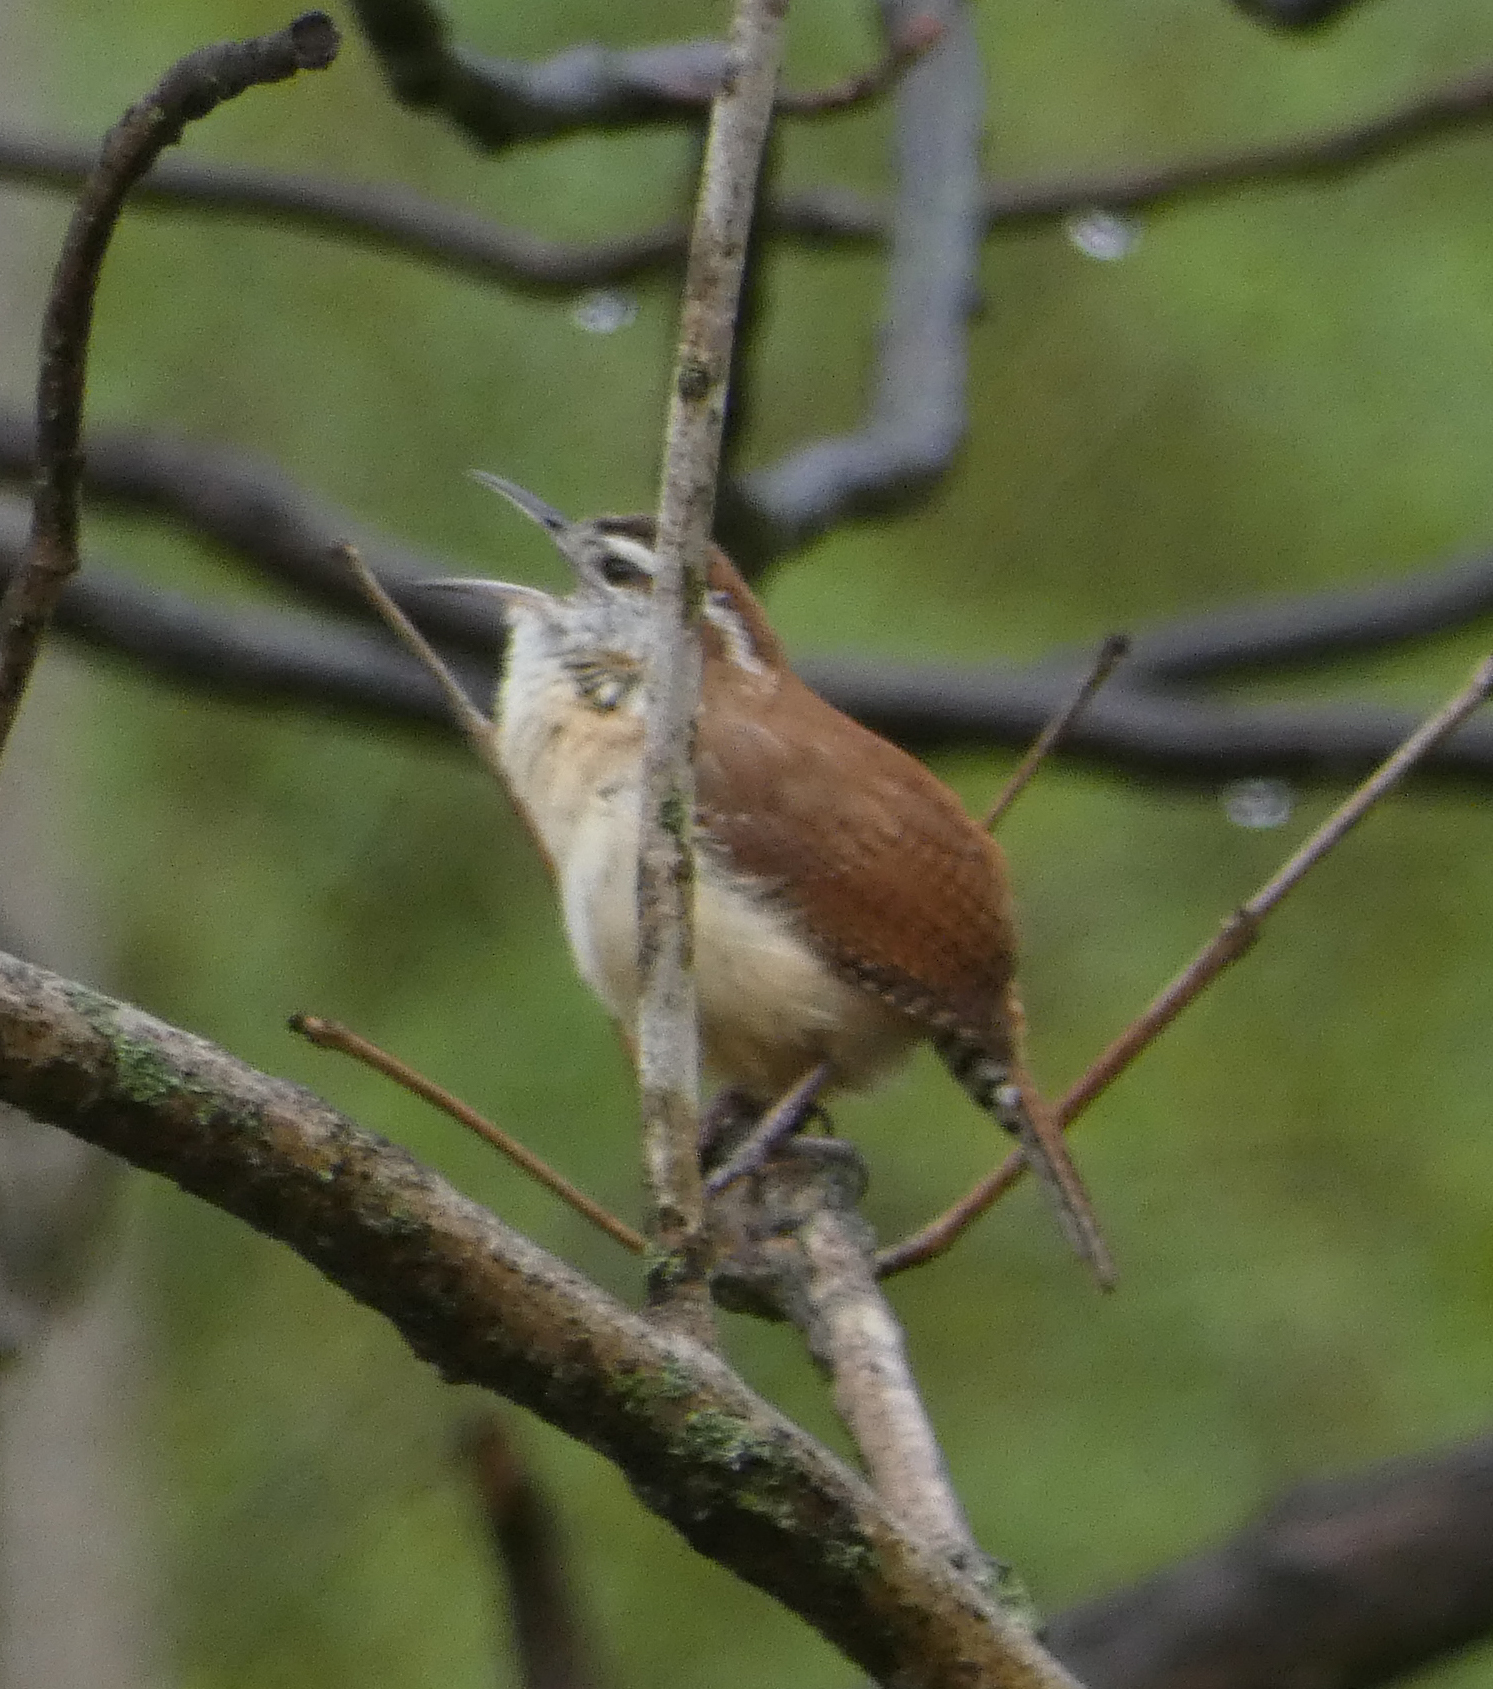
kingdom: Animalia
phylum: Chordata
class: Aves
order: Passeriformes
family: Troglodytidae
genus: Thryothorus
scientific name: Thryothorus ludovicianus
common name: Carolina wren
